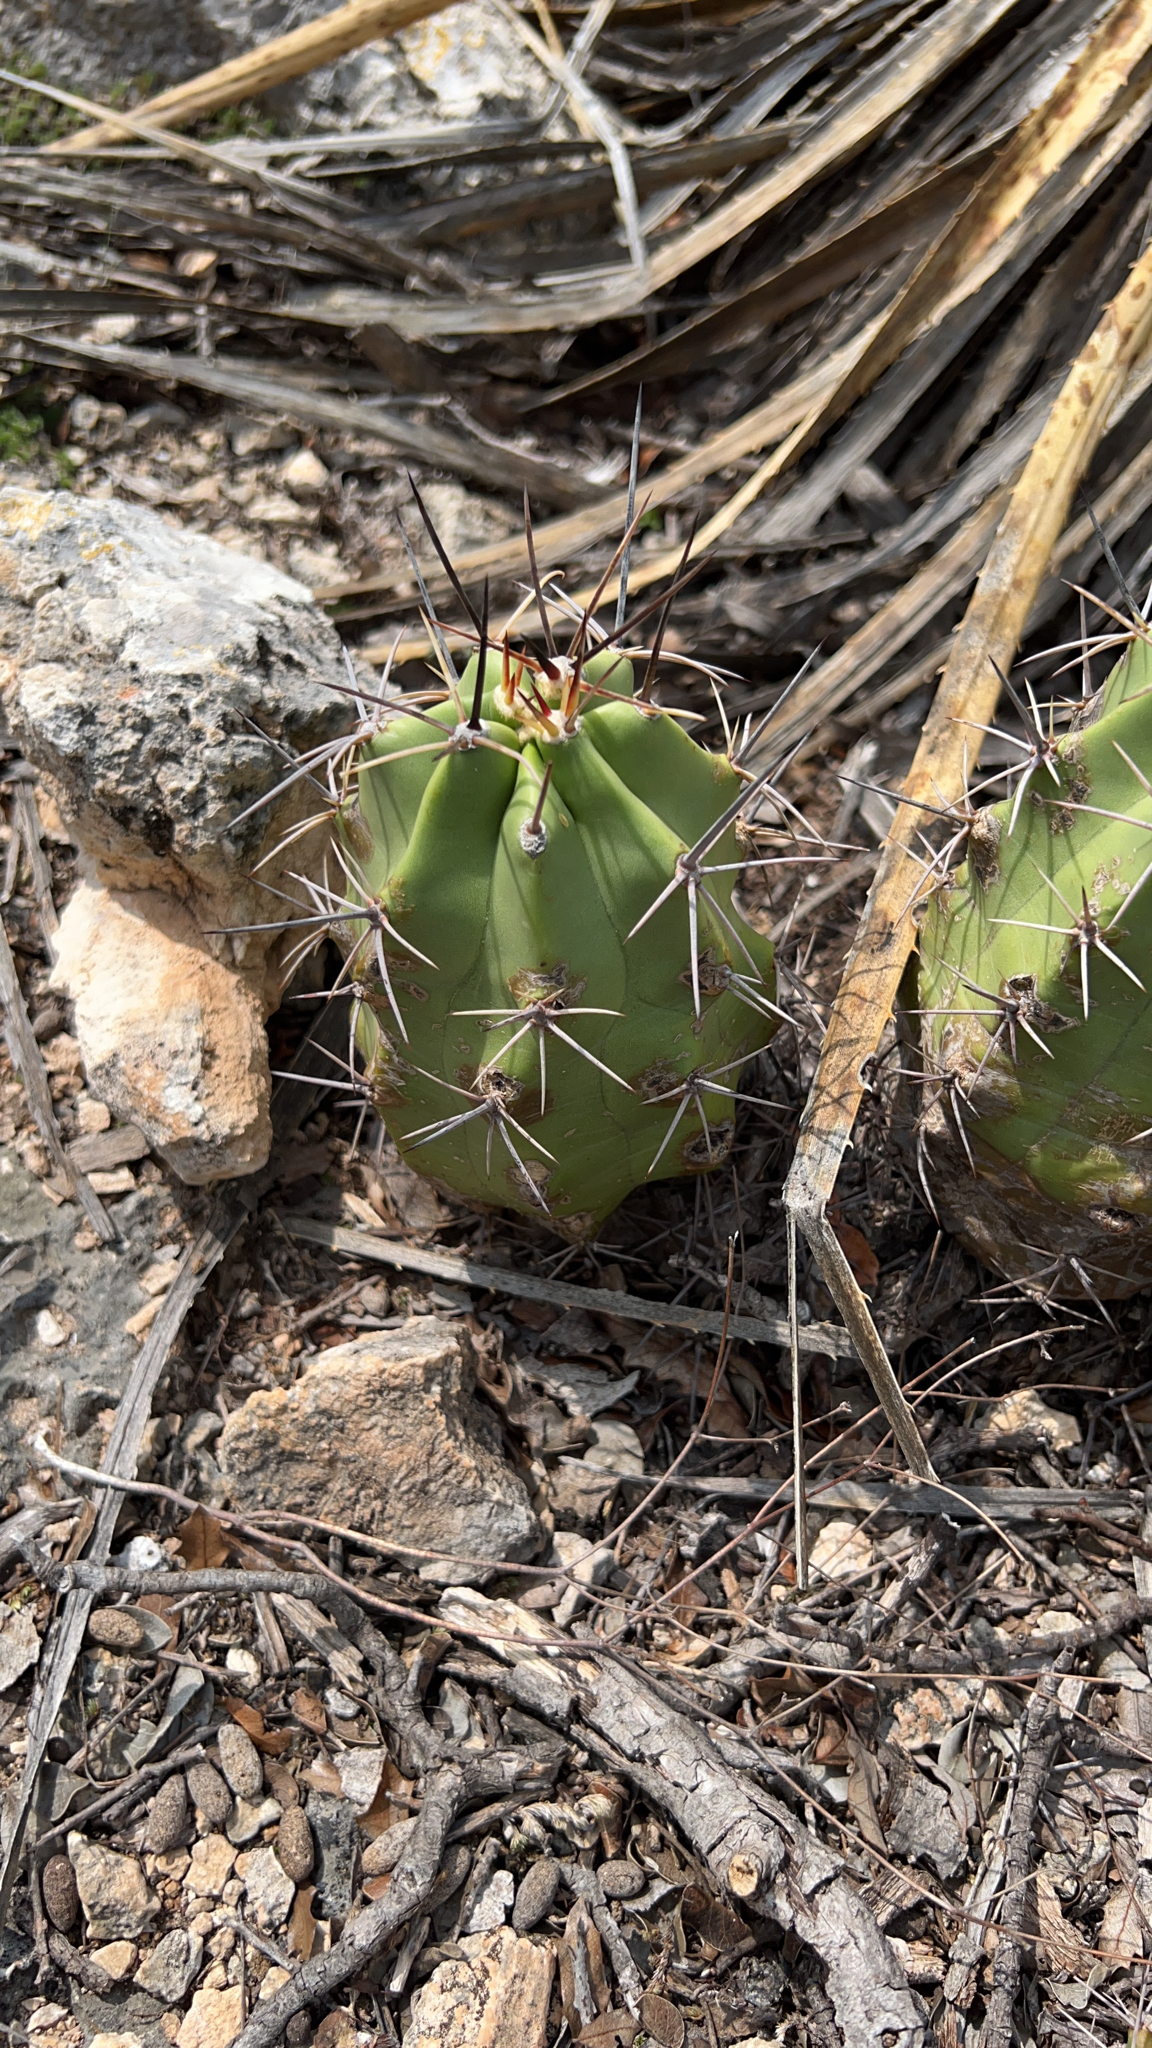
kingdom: Plantae
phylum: Tracheophyta
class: Magnoliopsida
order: Caryophyllales
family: Cactaceae
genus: Echinocereus
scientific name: Echinocereus coccineus
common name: Scarlet hedgehog cactus
